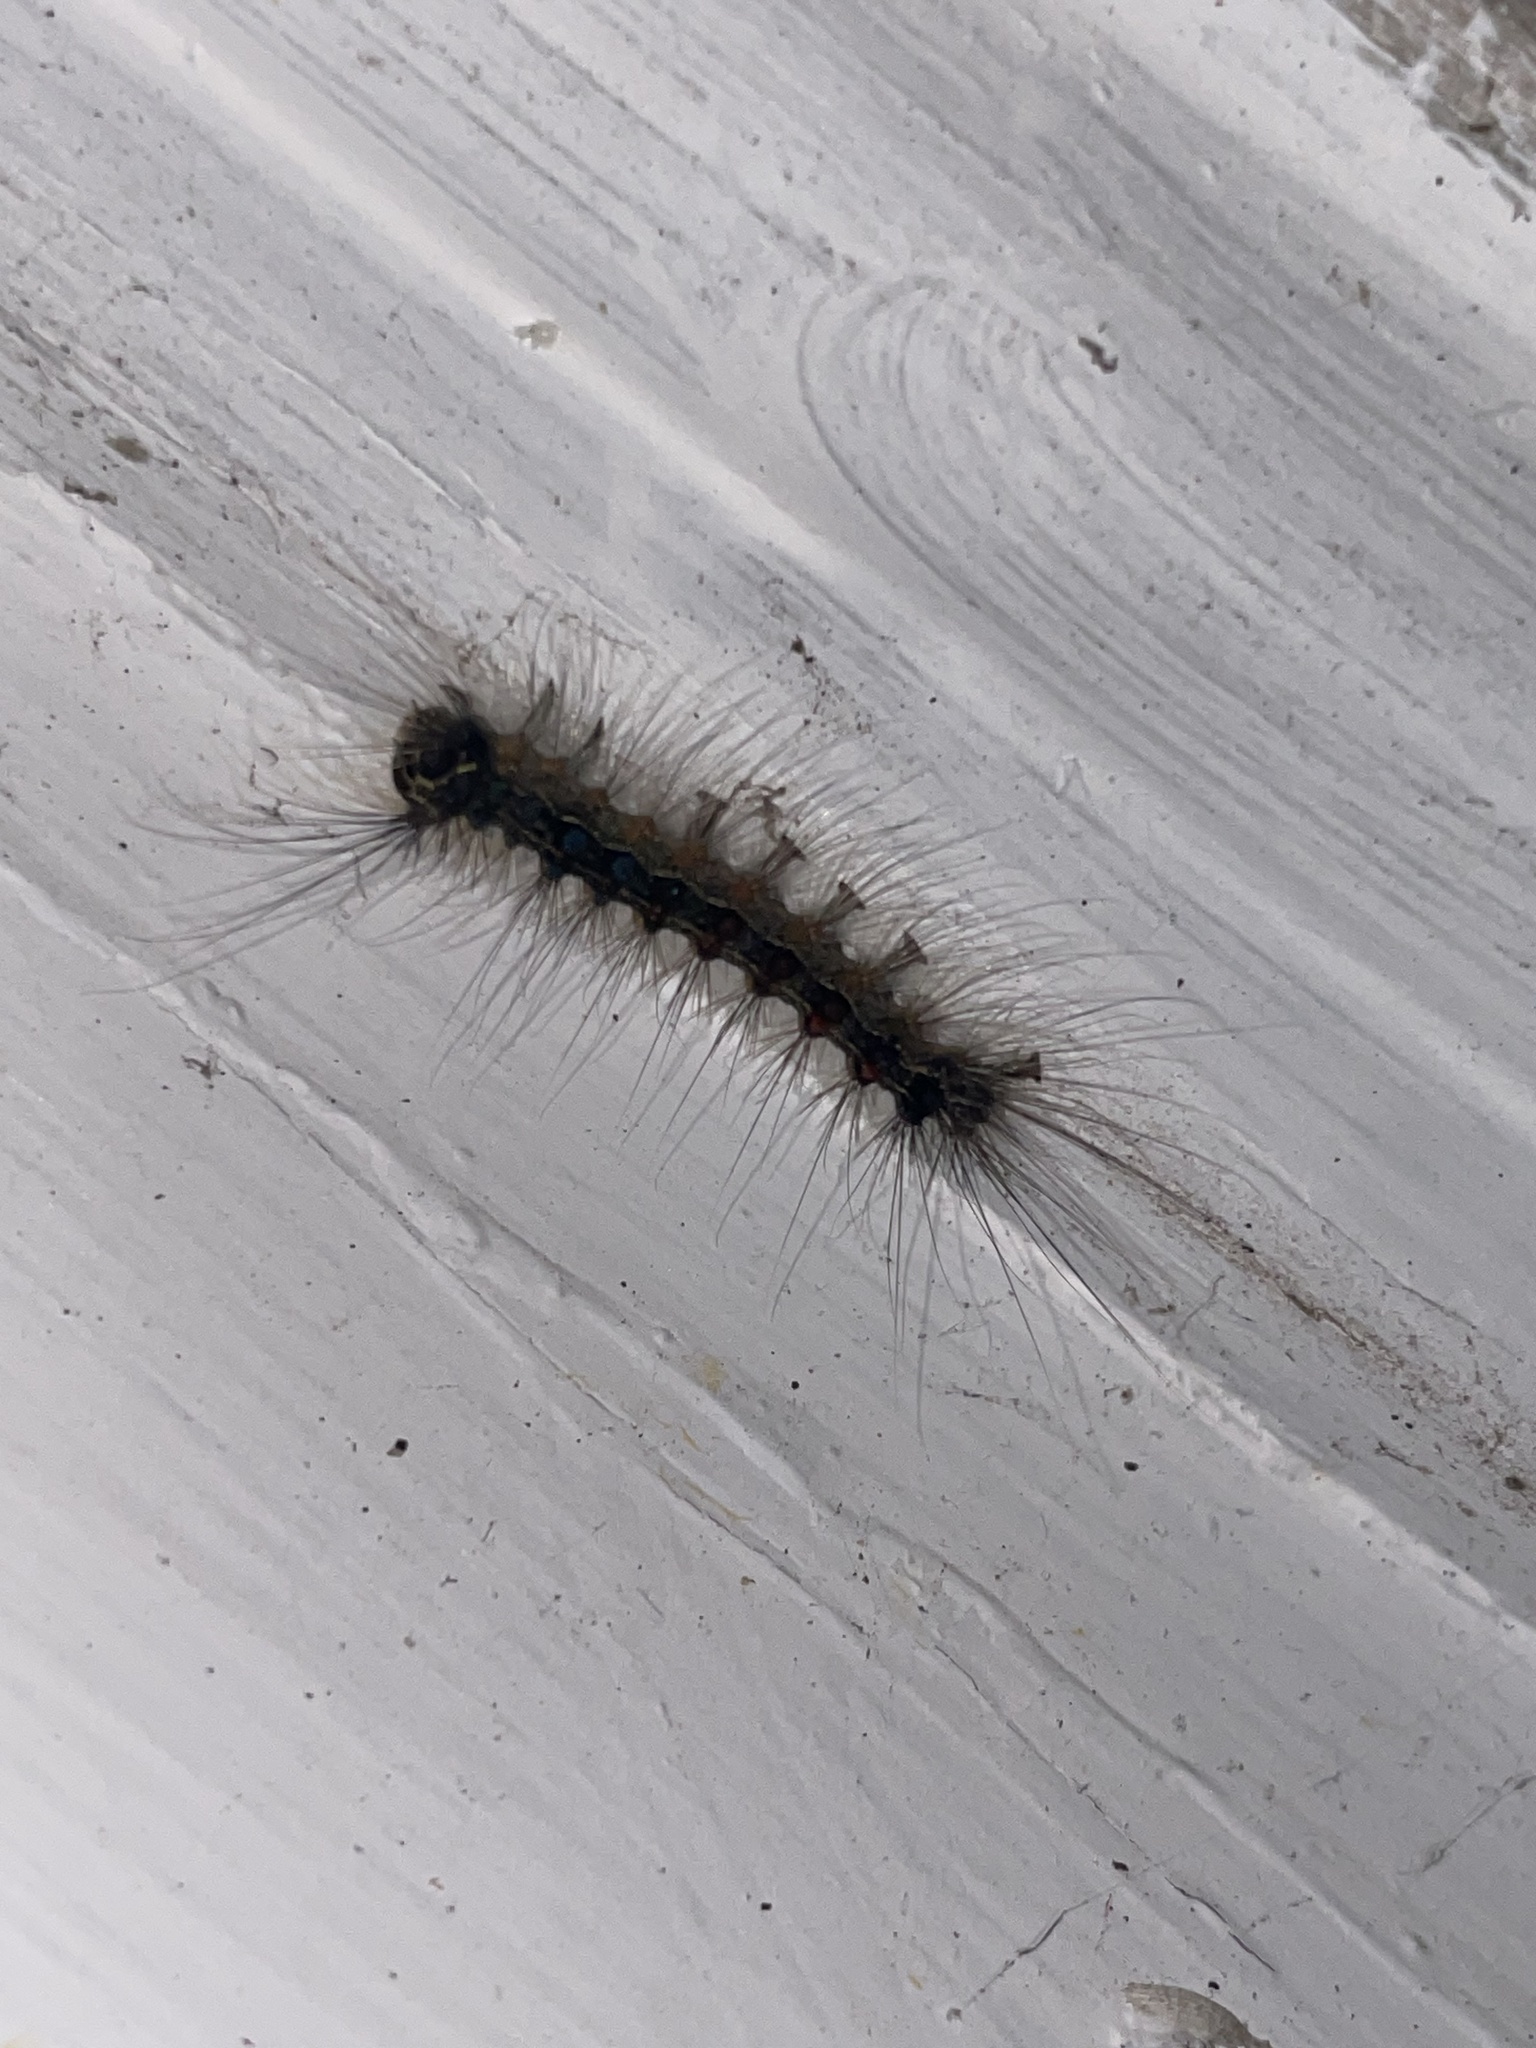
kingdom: Animalia
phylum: Arthropoda
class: Insecta
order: Lepidoptera
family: Erebidae
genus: Lymantria
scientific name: Lymantria dispar
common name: Gypsy moth
